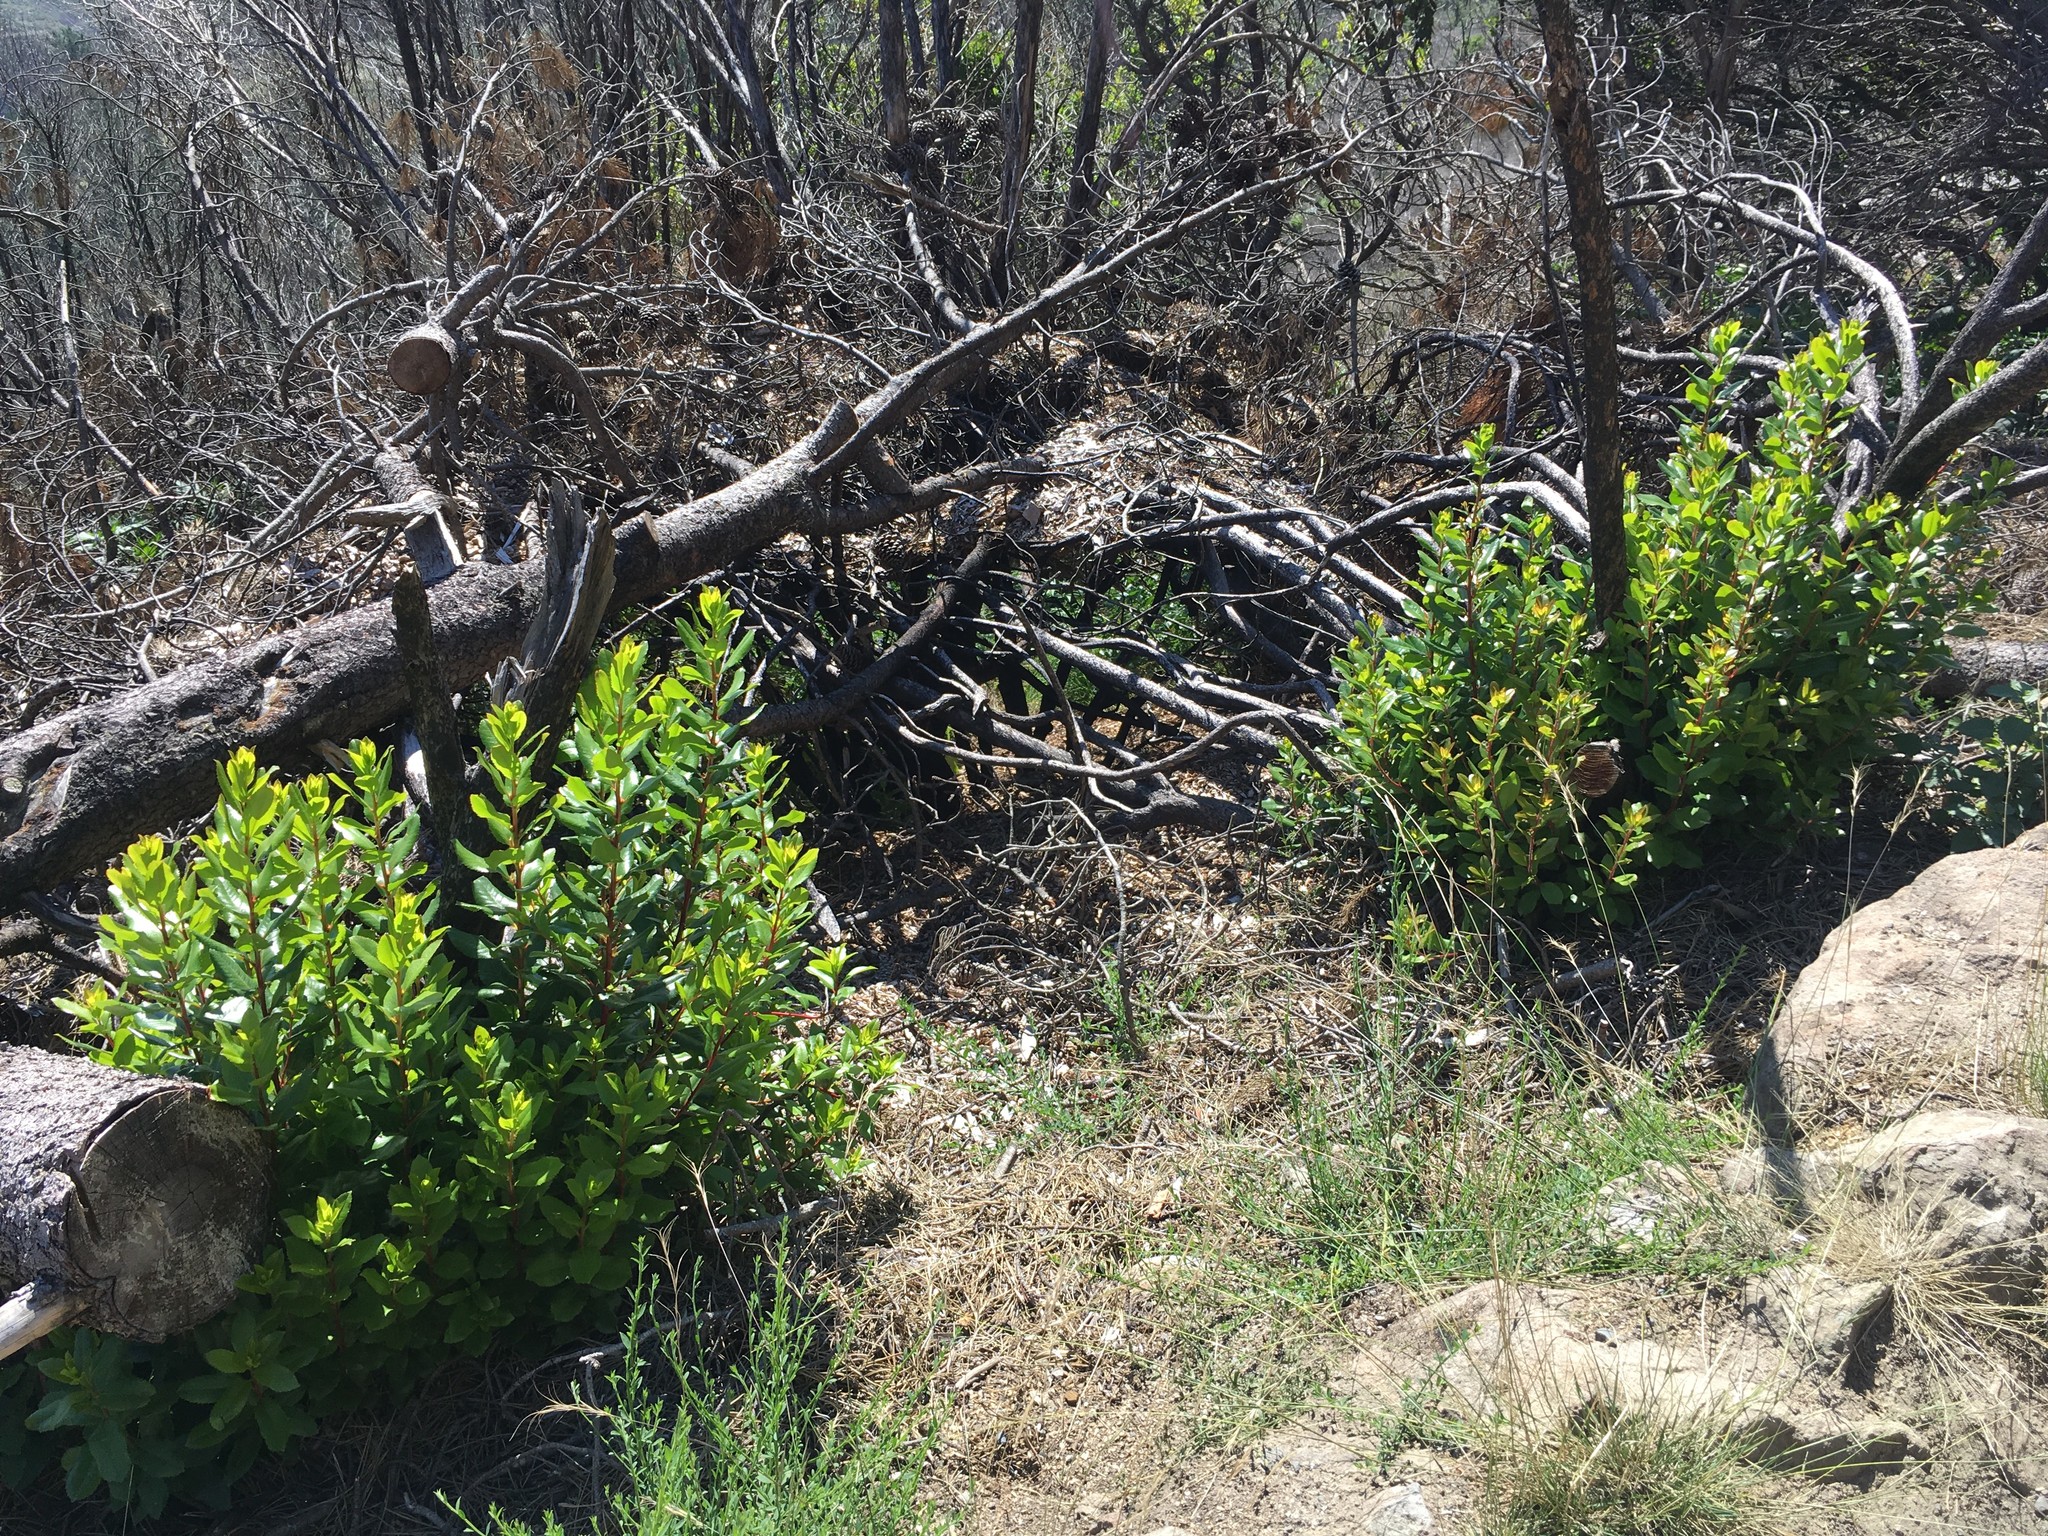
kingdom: Plantae
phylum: Tracheophyta
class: Magnoliopsida
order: Ericales
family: Ericaceae
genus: Arbutus
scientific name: Arbutus unedo
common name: Strawberry-tree
